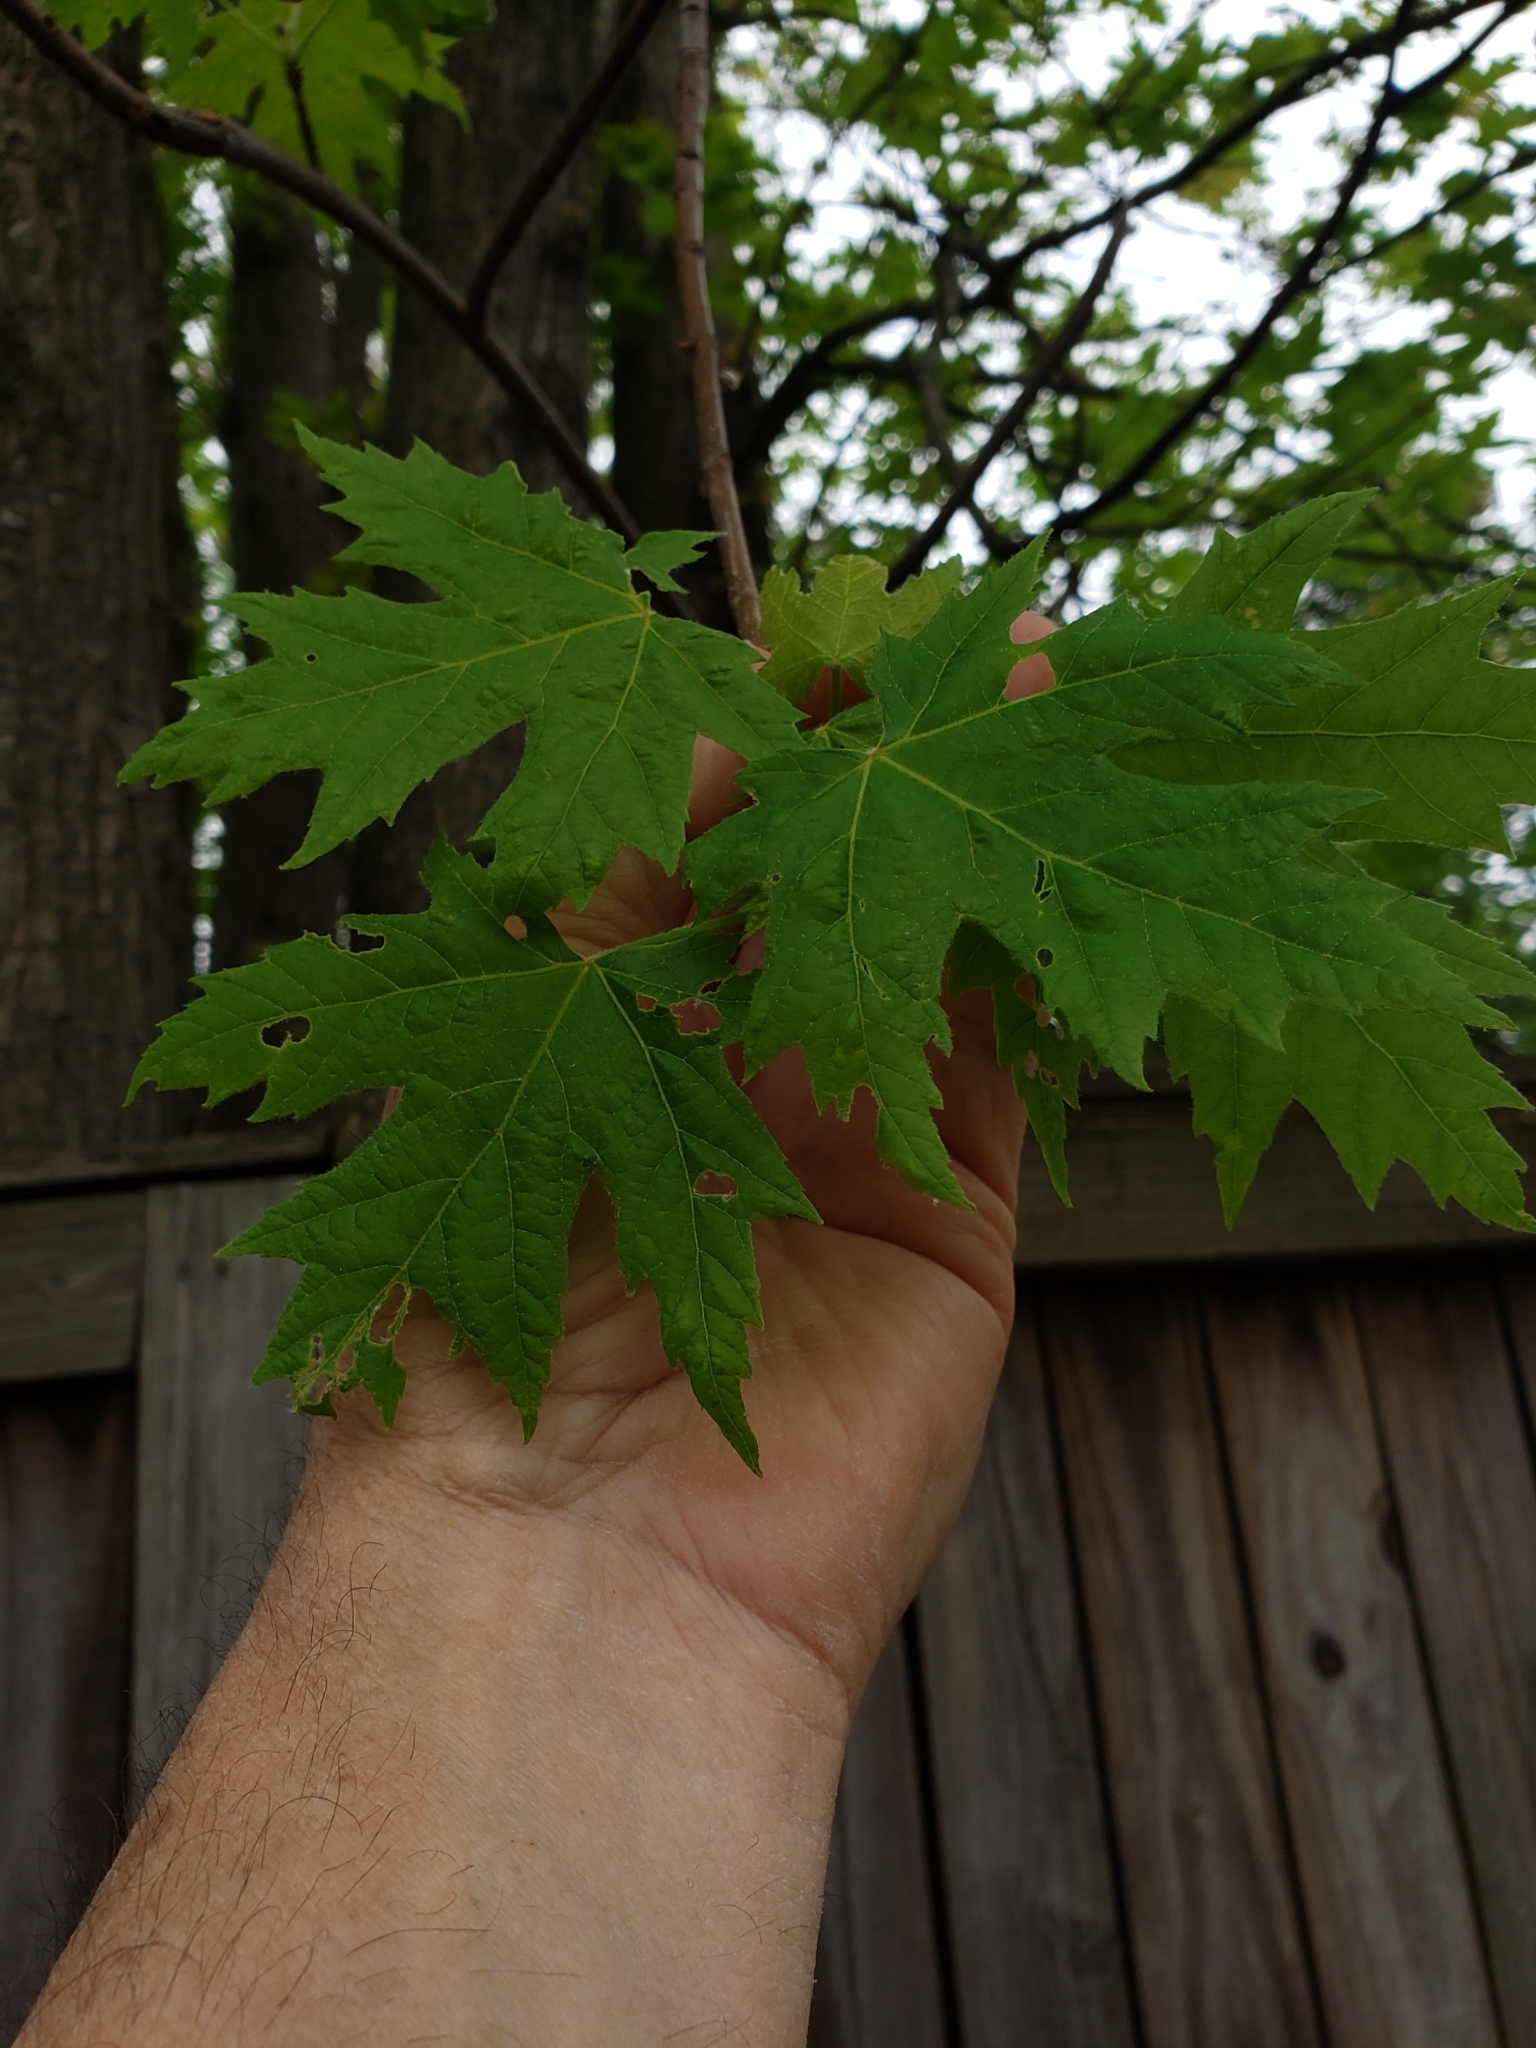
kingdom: Animalia
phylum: Arthropoda
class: Arachnida
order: Trombidiformes
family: Eriophyidae
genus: Vasates
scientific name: Vasates quadripedes
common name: Maple bladder gall mite
